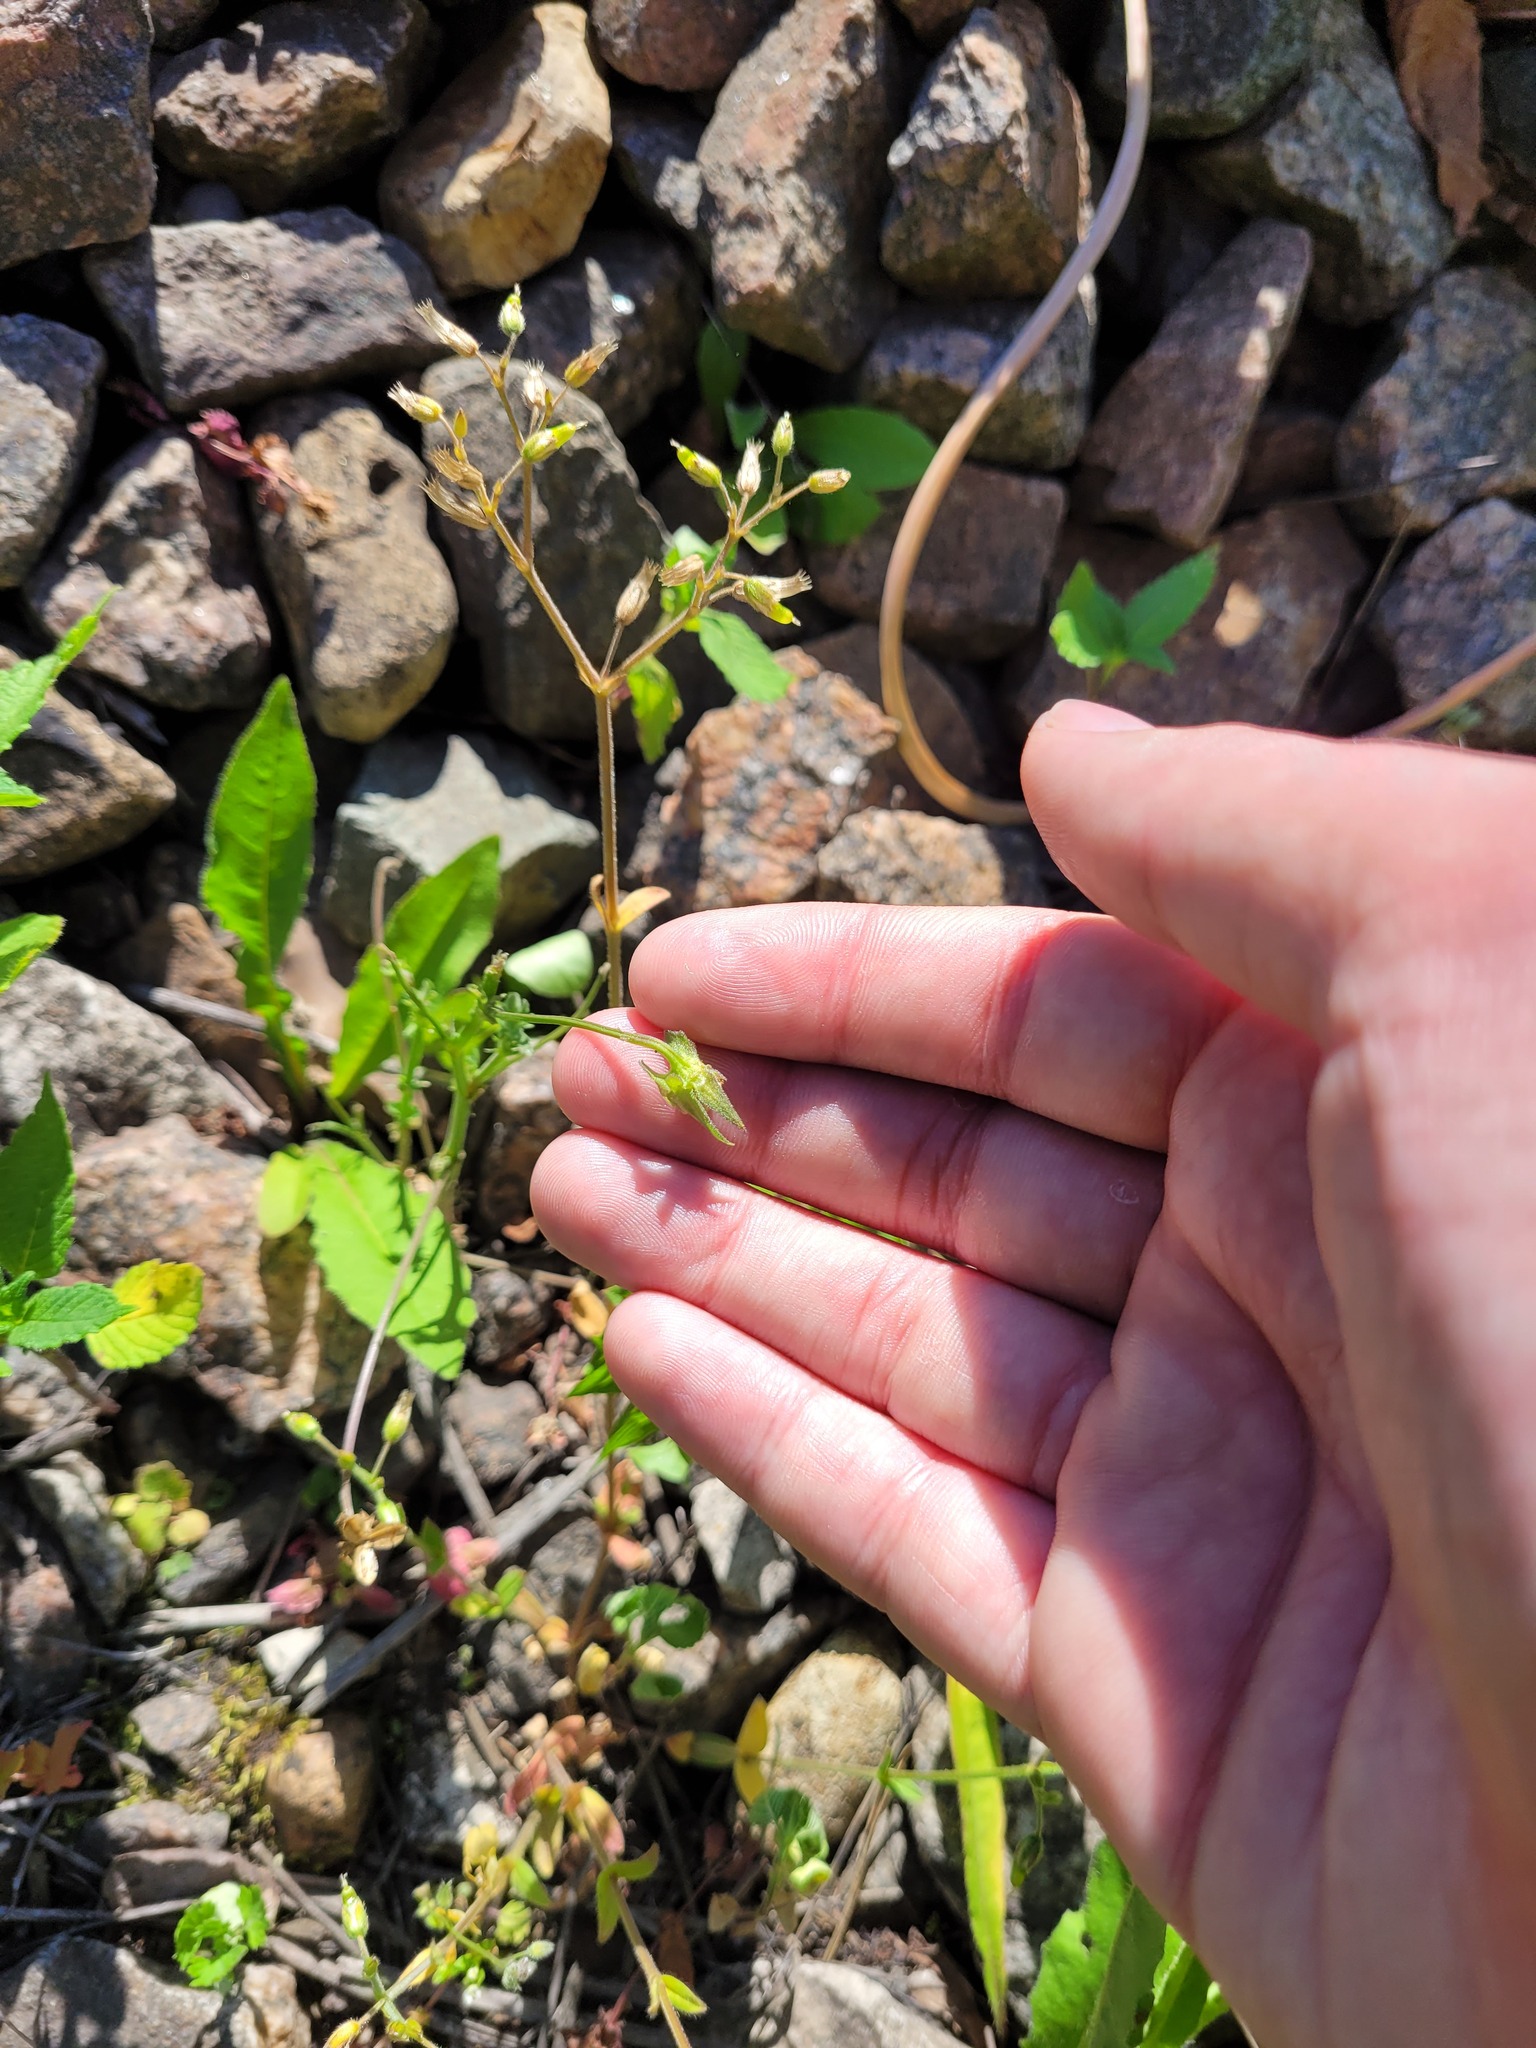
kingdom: Plantae
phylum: Tracheophyta
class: Magnoliopsida
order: Malpighiales
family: Violaceae
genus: Viola
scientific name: Viola arvensis
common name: Field pansy
